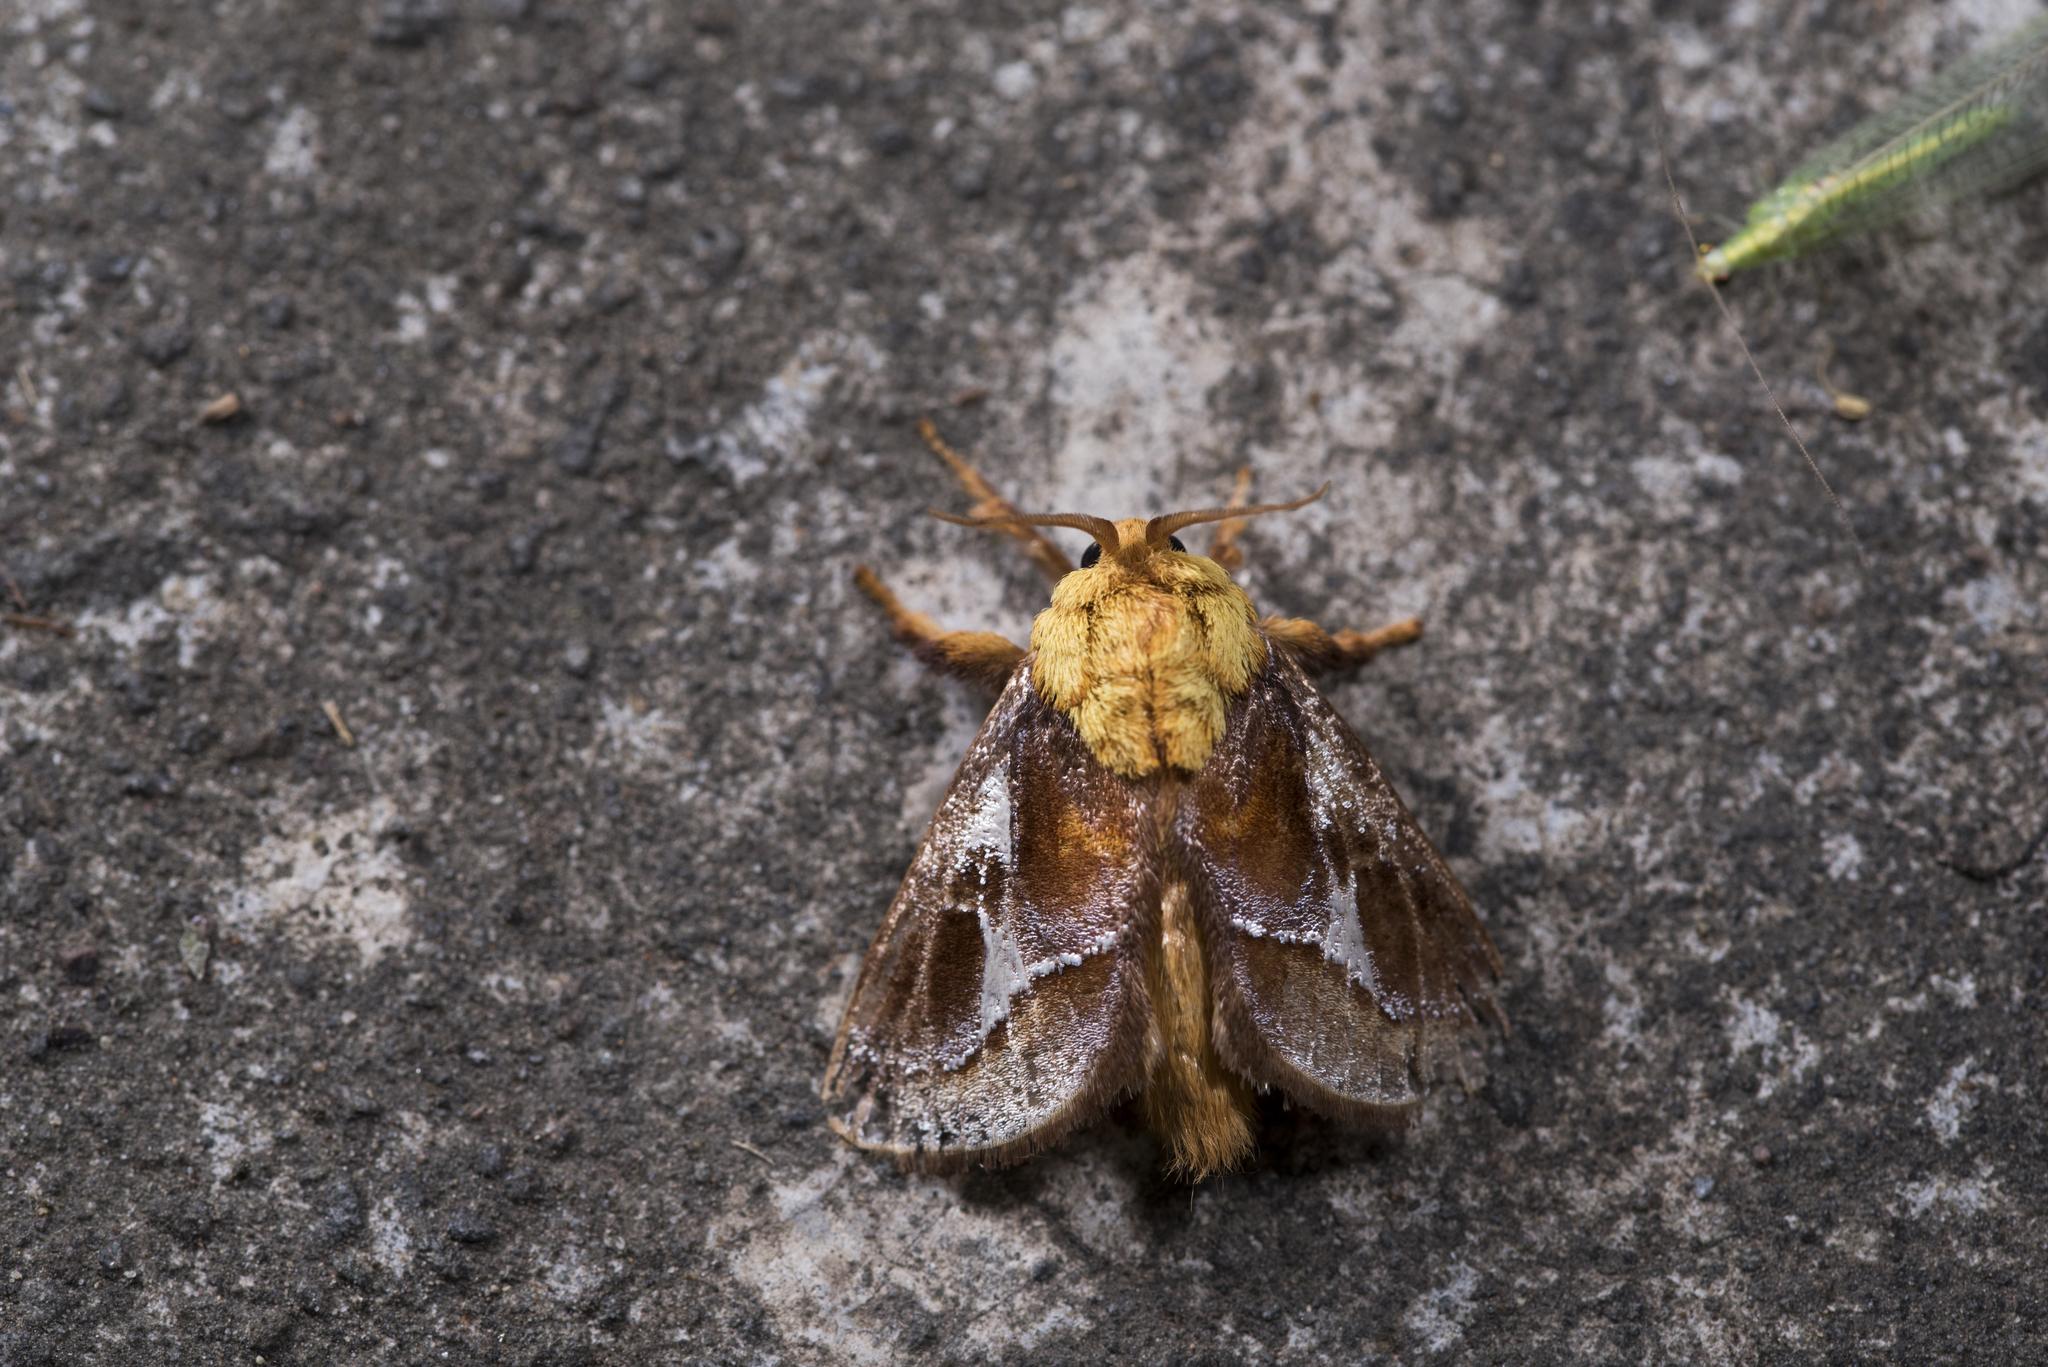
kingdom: Animalia
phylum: Arthropoda
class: Insecta
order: Lepidoptera
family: Limacodidae
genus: Miresa
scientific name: Miresa fulgida
